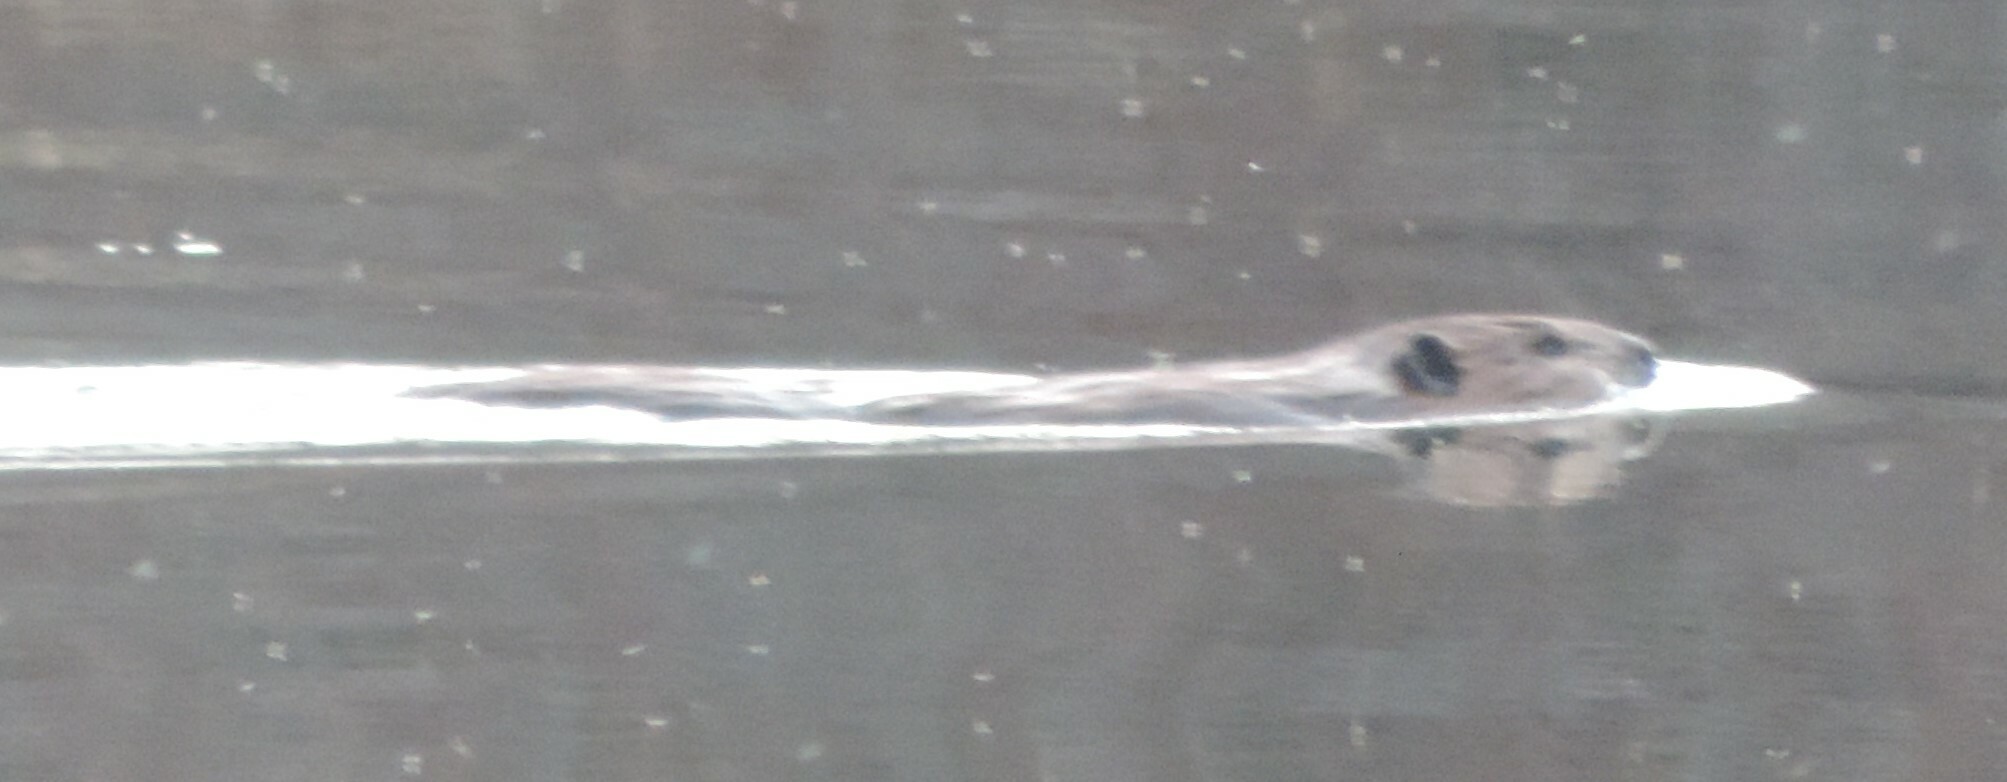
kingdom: Animalia
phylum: Chordata
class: Mammalia
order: Rodentia
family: Castoridae
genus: Castor
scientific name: Castor canadensis
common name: American beaver
